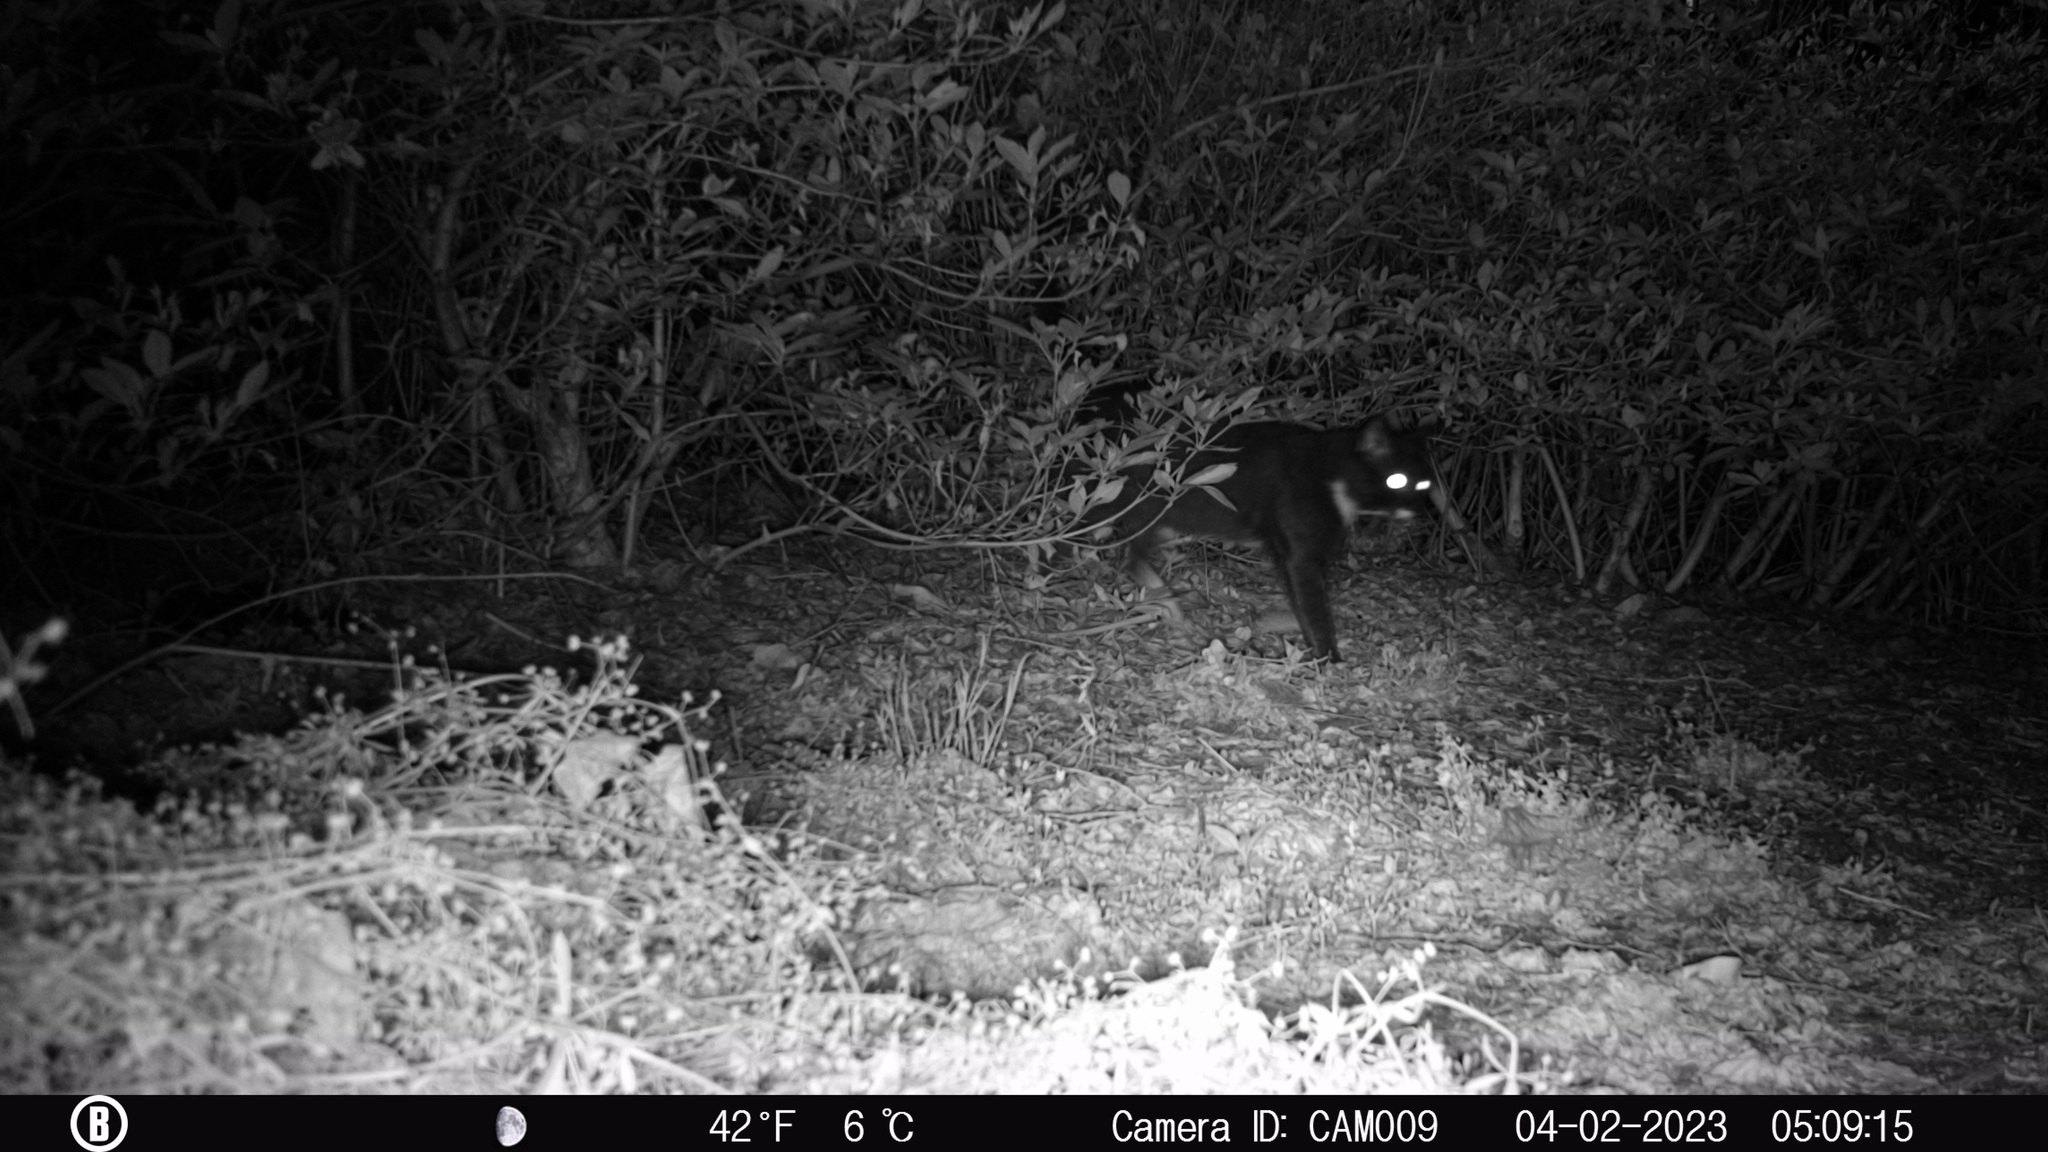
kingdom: Animalia
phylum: Chordata
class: Mammalia
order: Carnivora
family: Felidae
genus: Felis
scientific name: Felis catus
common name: Domestic cat
